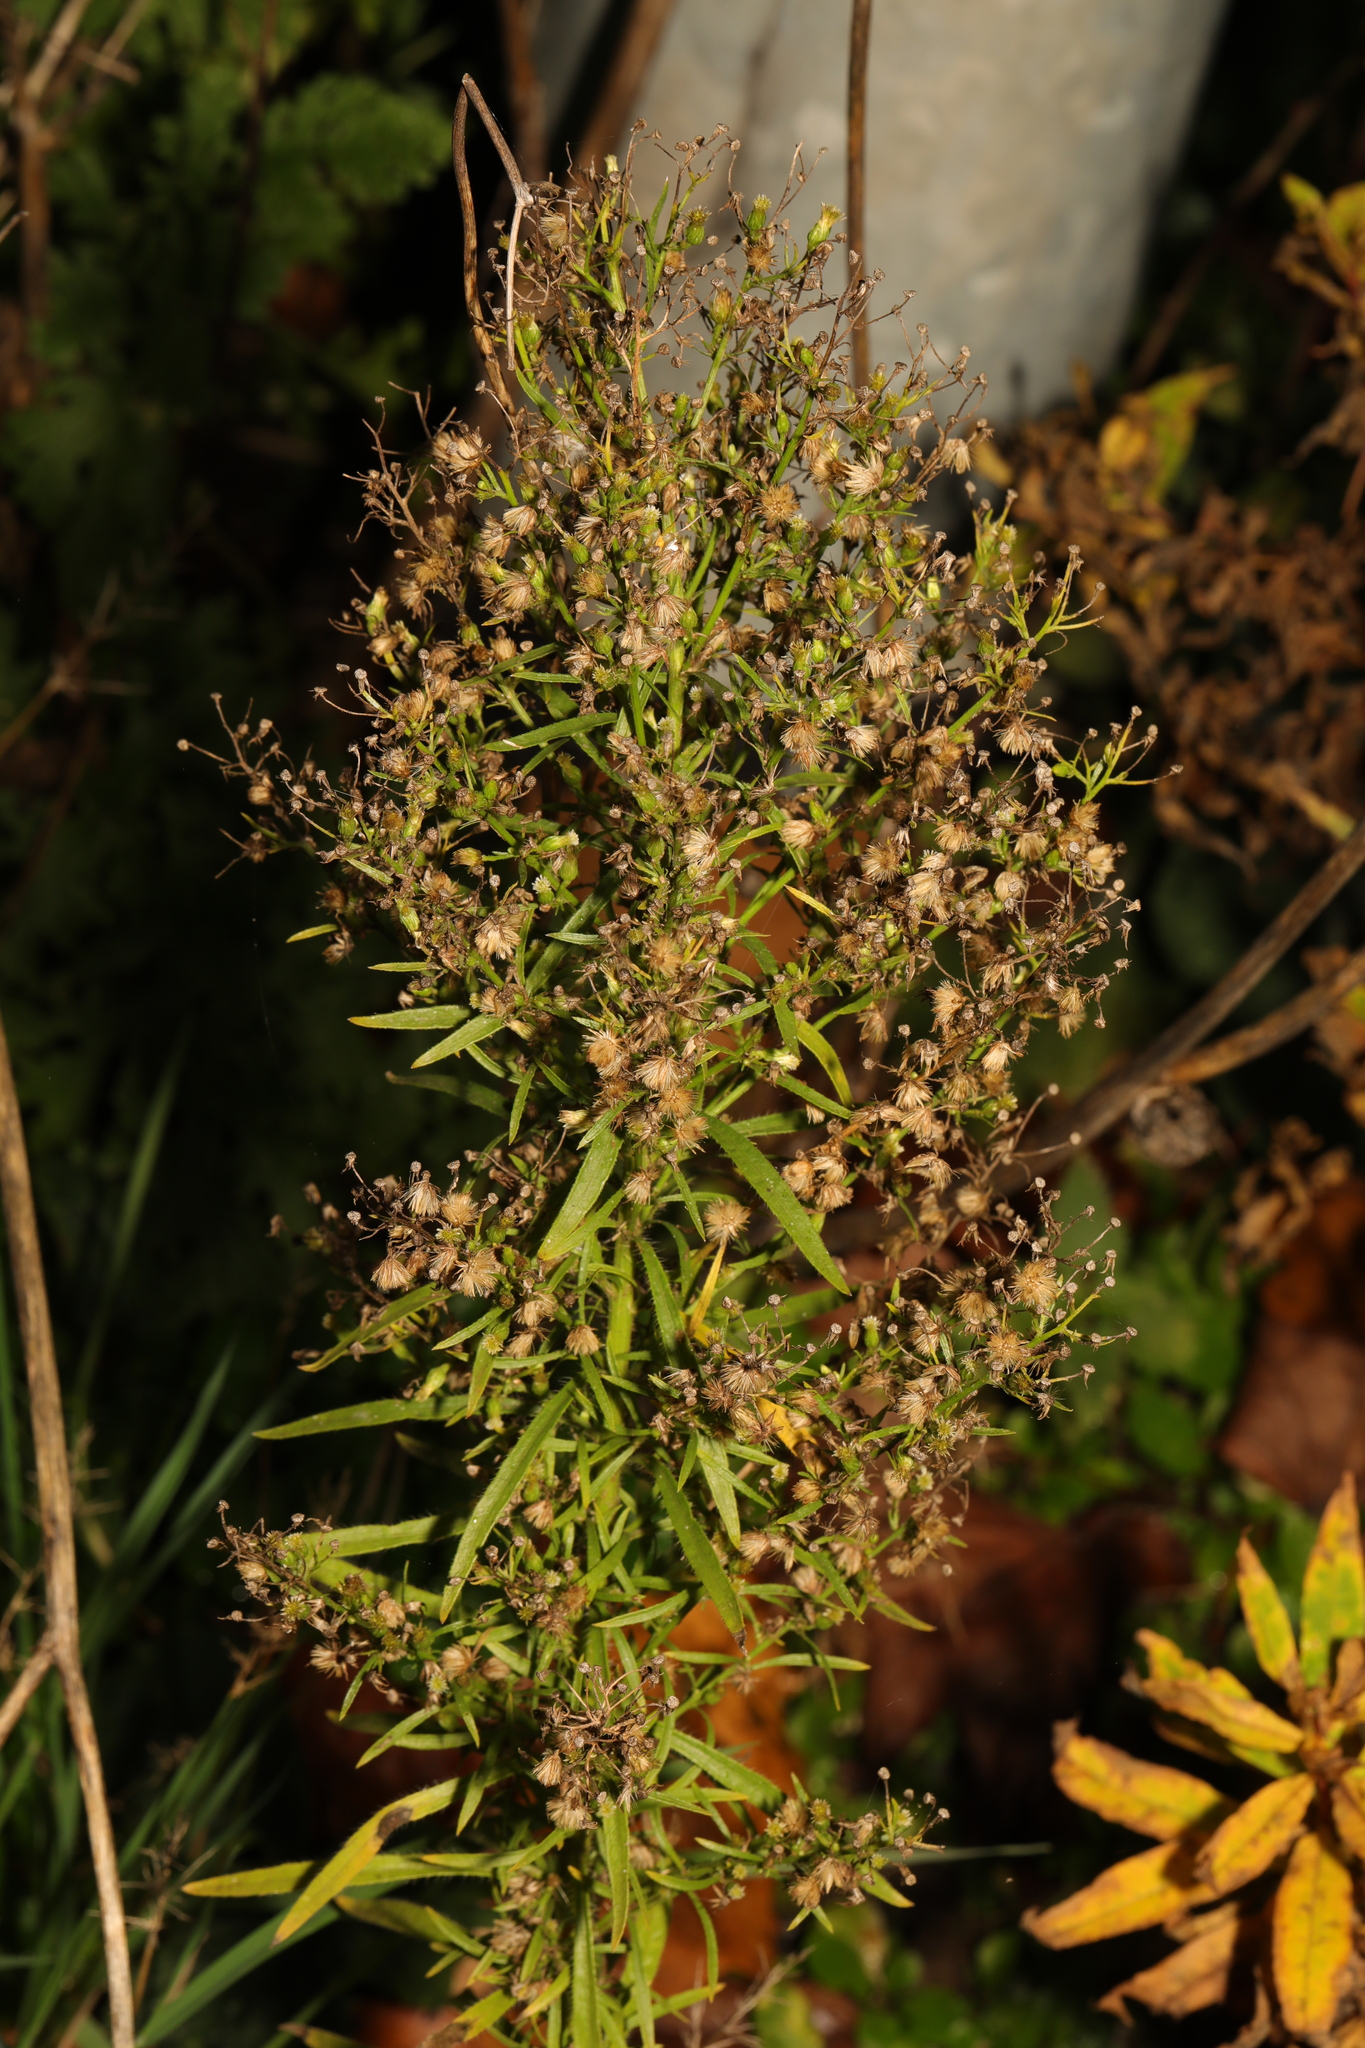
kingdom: Plantae
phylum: Tracheophyta
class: Magnoliopsida
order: Asterales
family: Asteraceae
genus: Erigeron
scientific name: Erigeron canadensis
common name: Canadian fleabane
